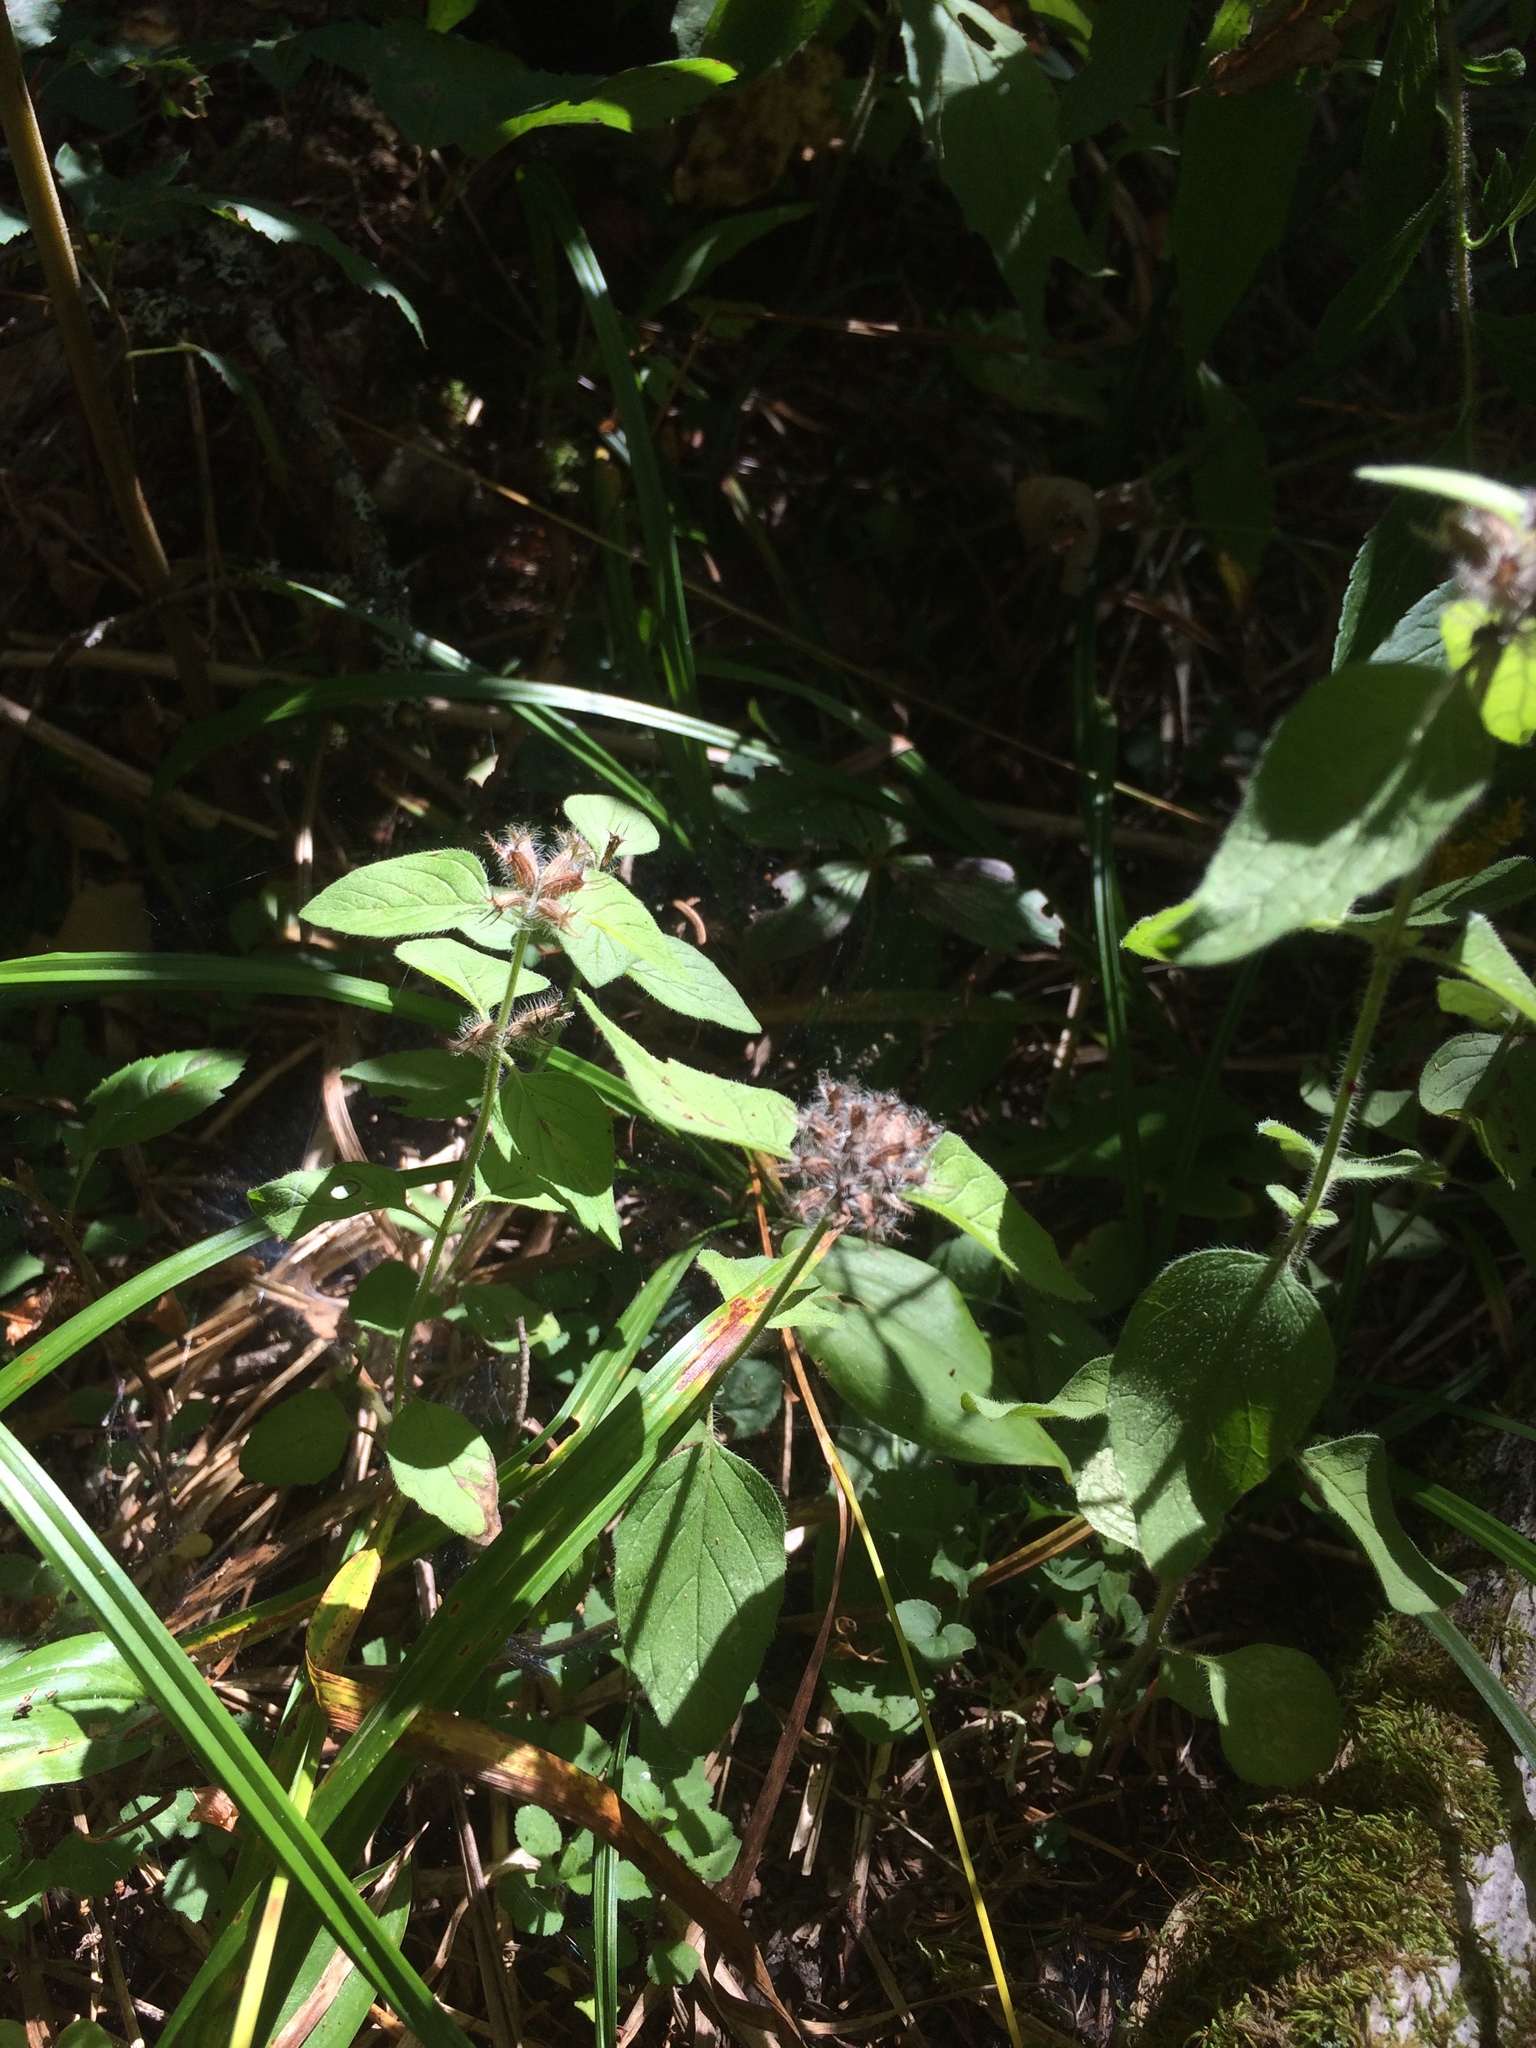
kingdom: Plantae
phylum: Tracheophyta
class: Magnoliopsida
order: Lamiales
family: Lamiaceae
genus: Clinopodium
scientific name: Clinopodium vulgare
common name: Wild basil
